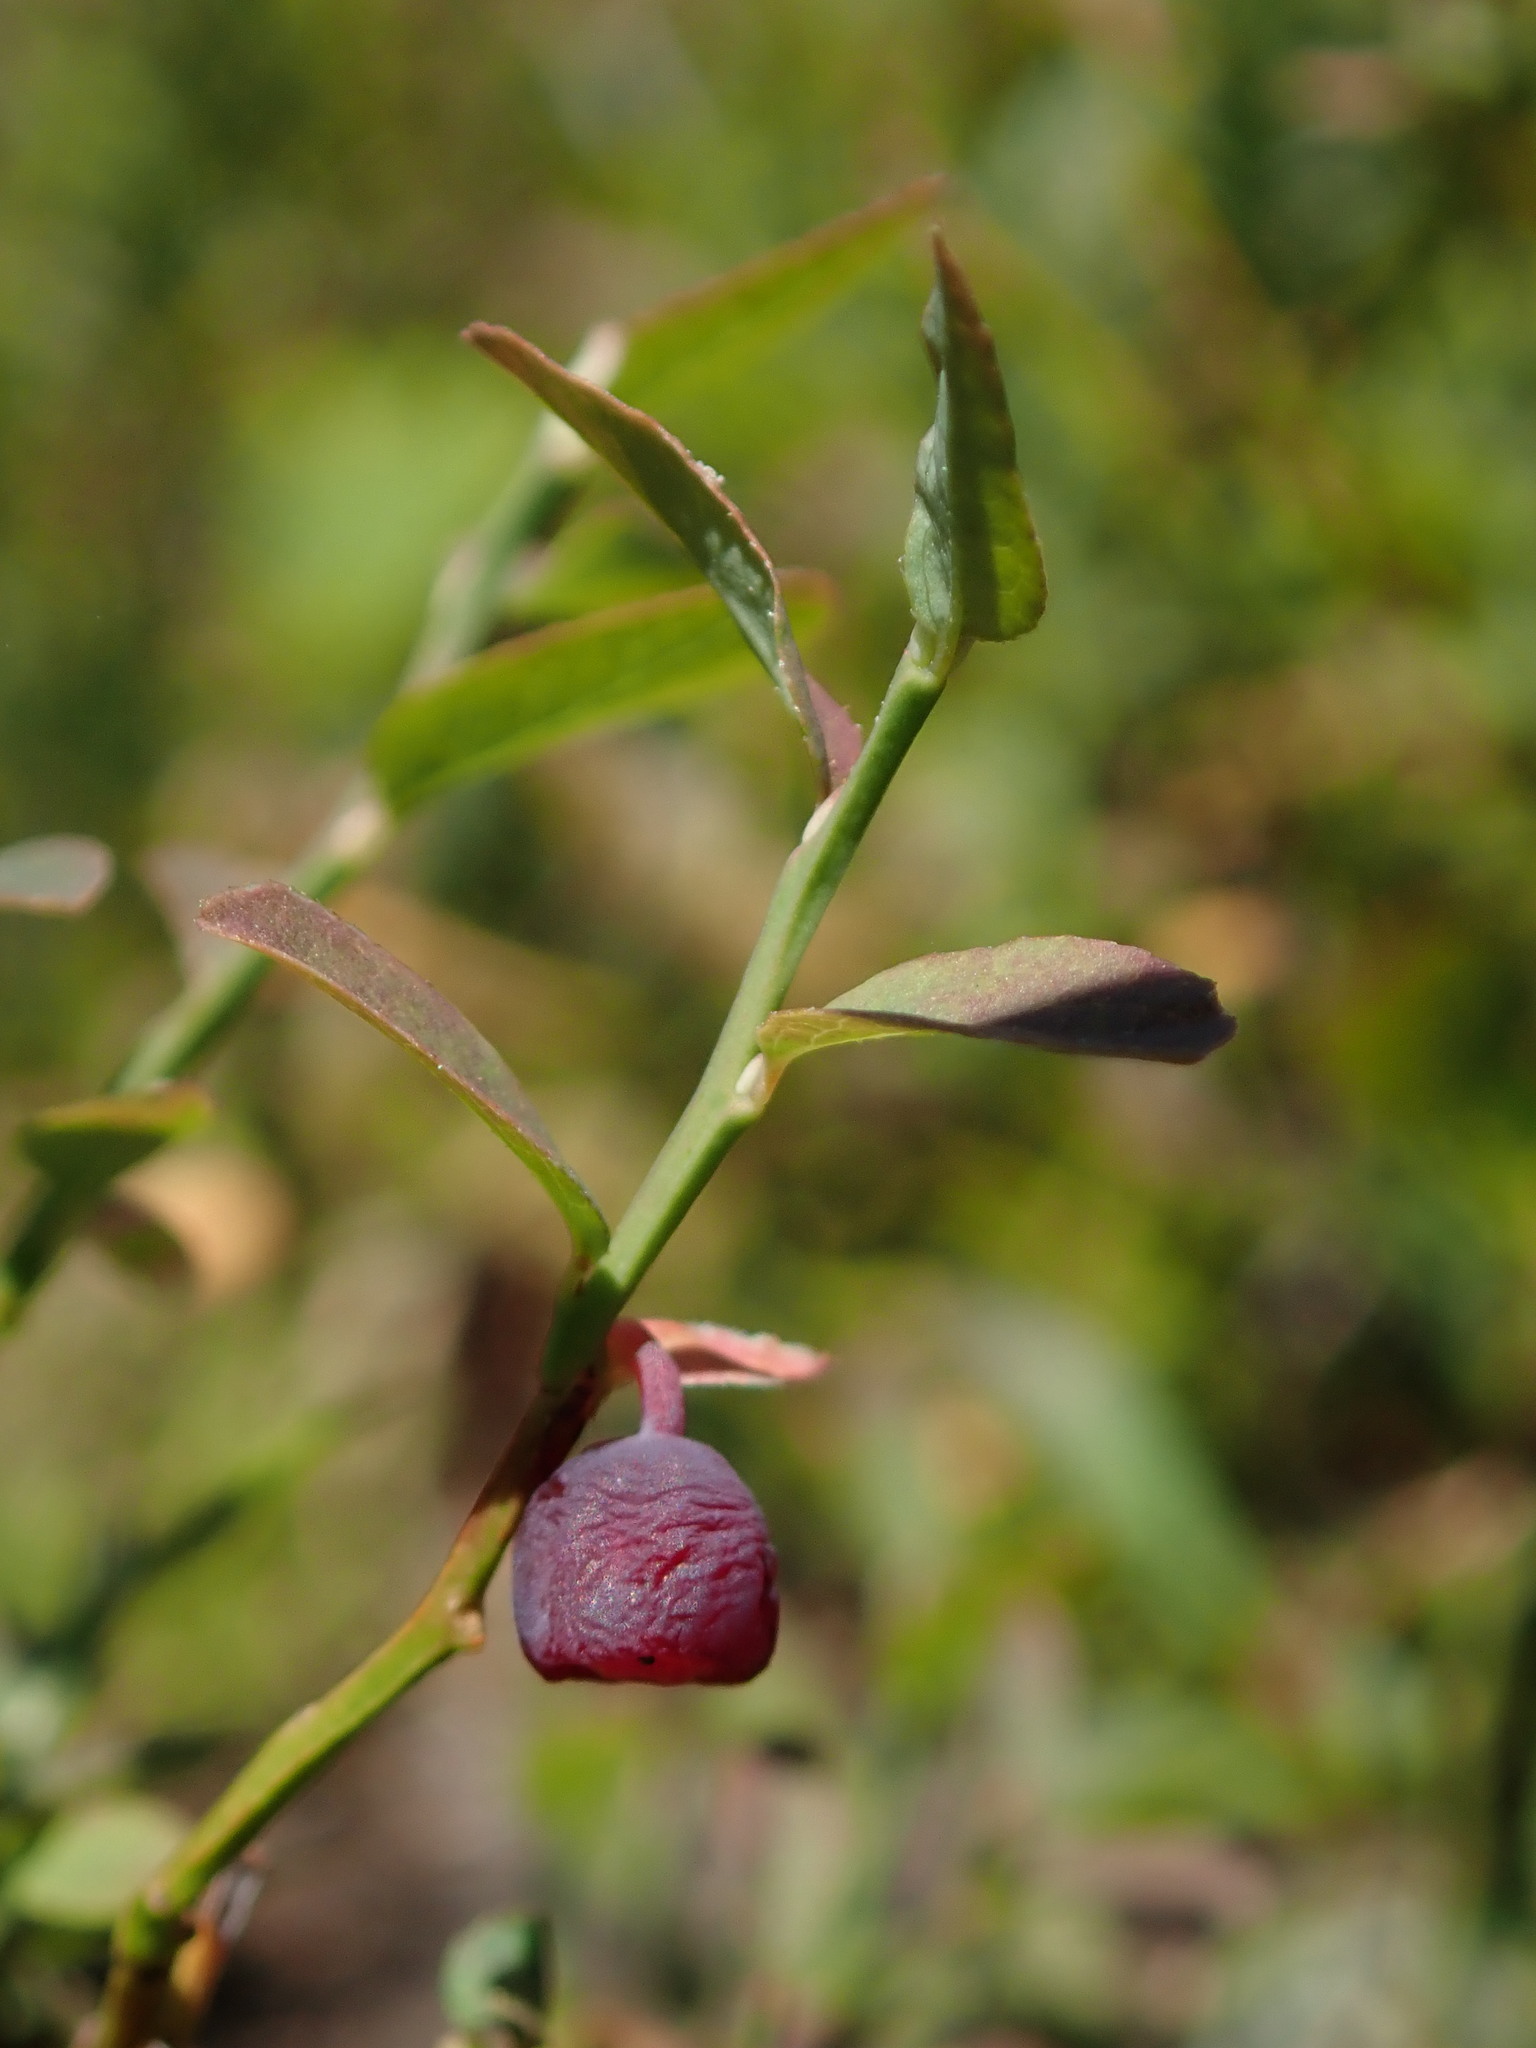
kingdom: Plantae
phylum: Tracheophyta
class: Magnoliopsida
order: Ericales
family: Ericaceae
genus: Vaccinium
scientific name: Vaccinium scoparium
